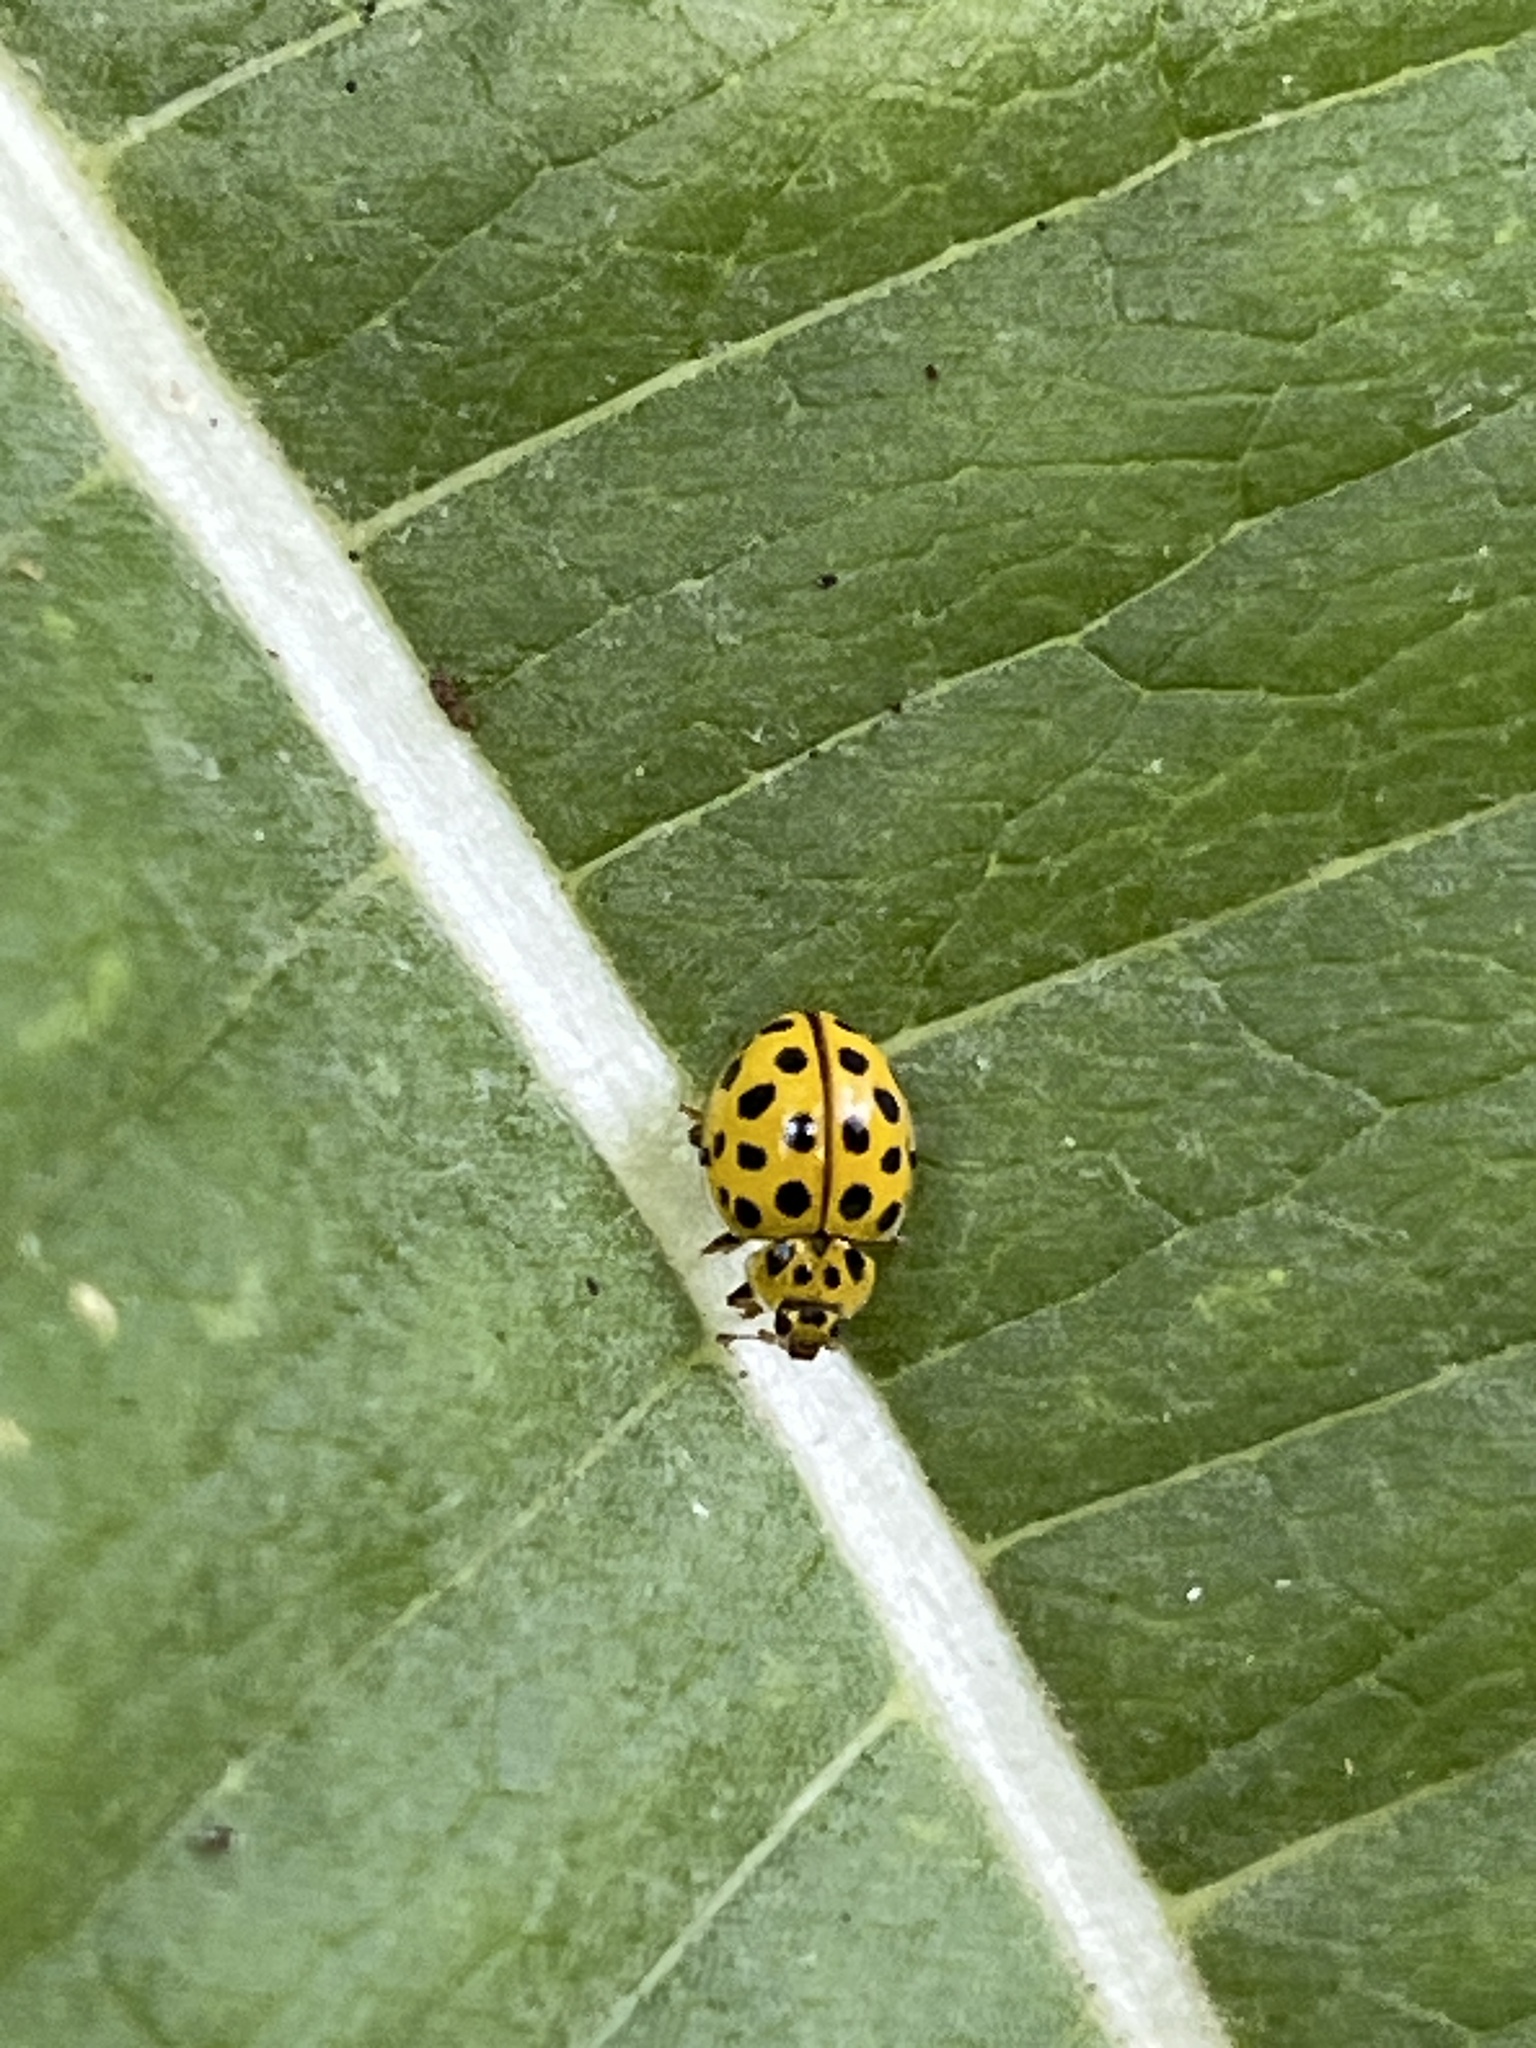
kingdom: Animalia
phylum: Arthropoda
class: Insecta
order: Coleoptera
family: Coccinellidae
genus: Psyllobora
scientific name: Psyllobora vigintiduopunctata
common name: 22-spot ladybird
